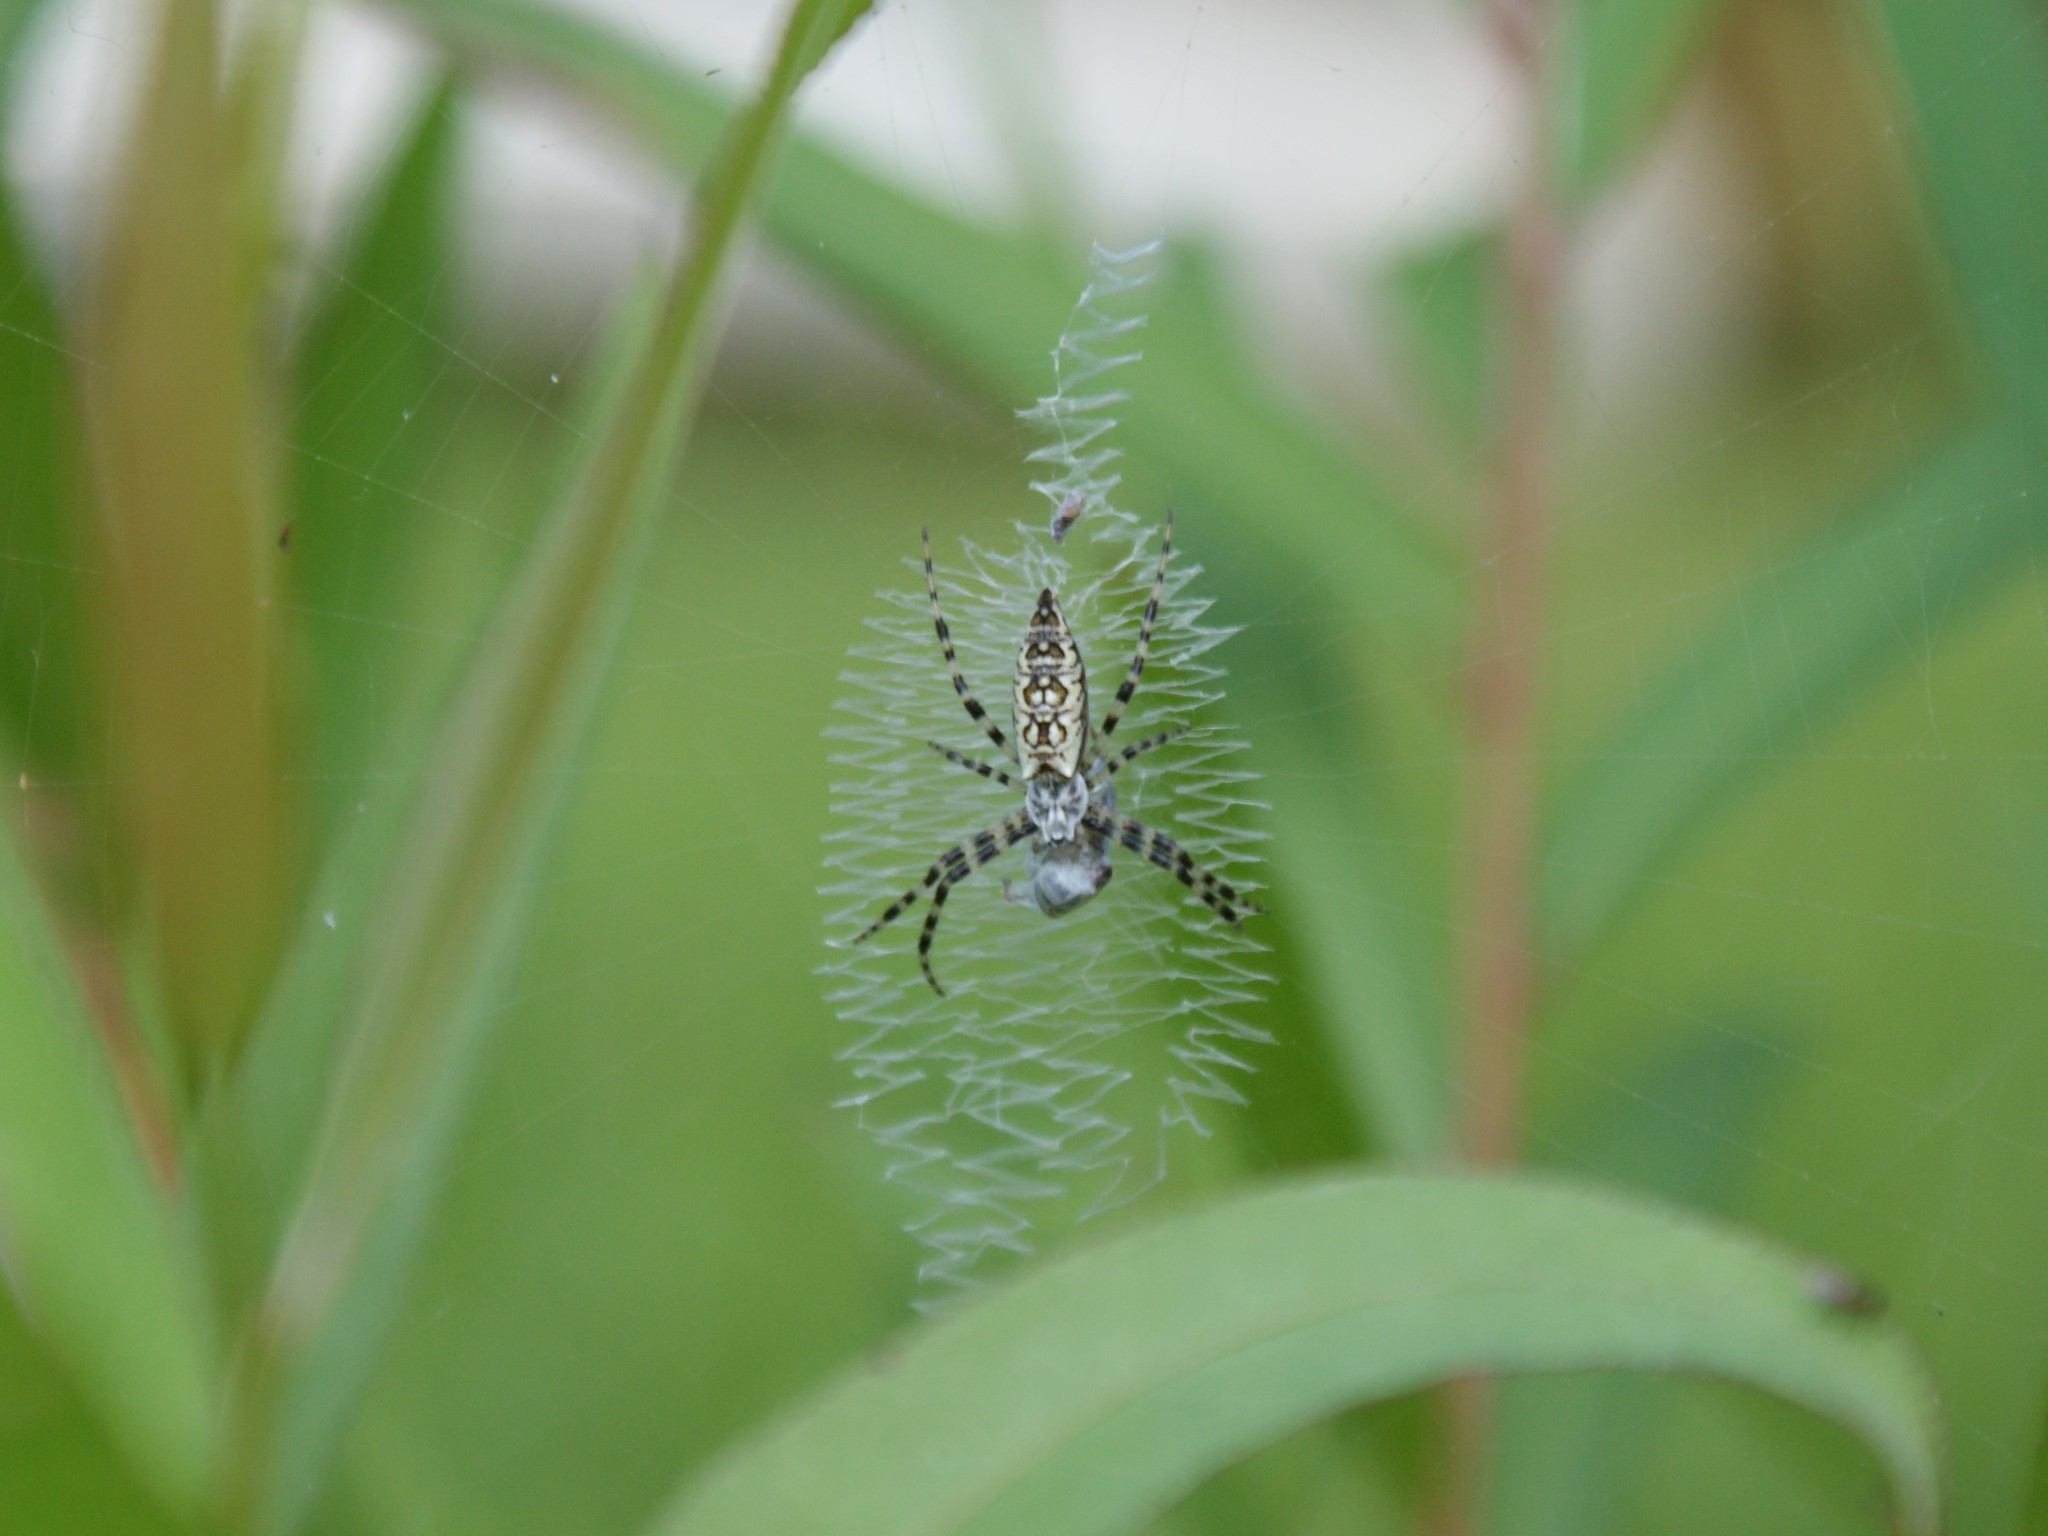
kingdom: Animalia
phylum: Arthropoda
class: Arachnida
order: Araneae
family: Araneidae
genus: Argiope
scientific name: Argiope aurantia
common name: Orb weavers
